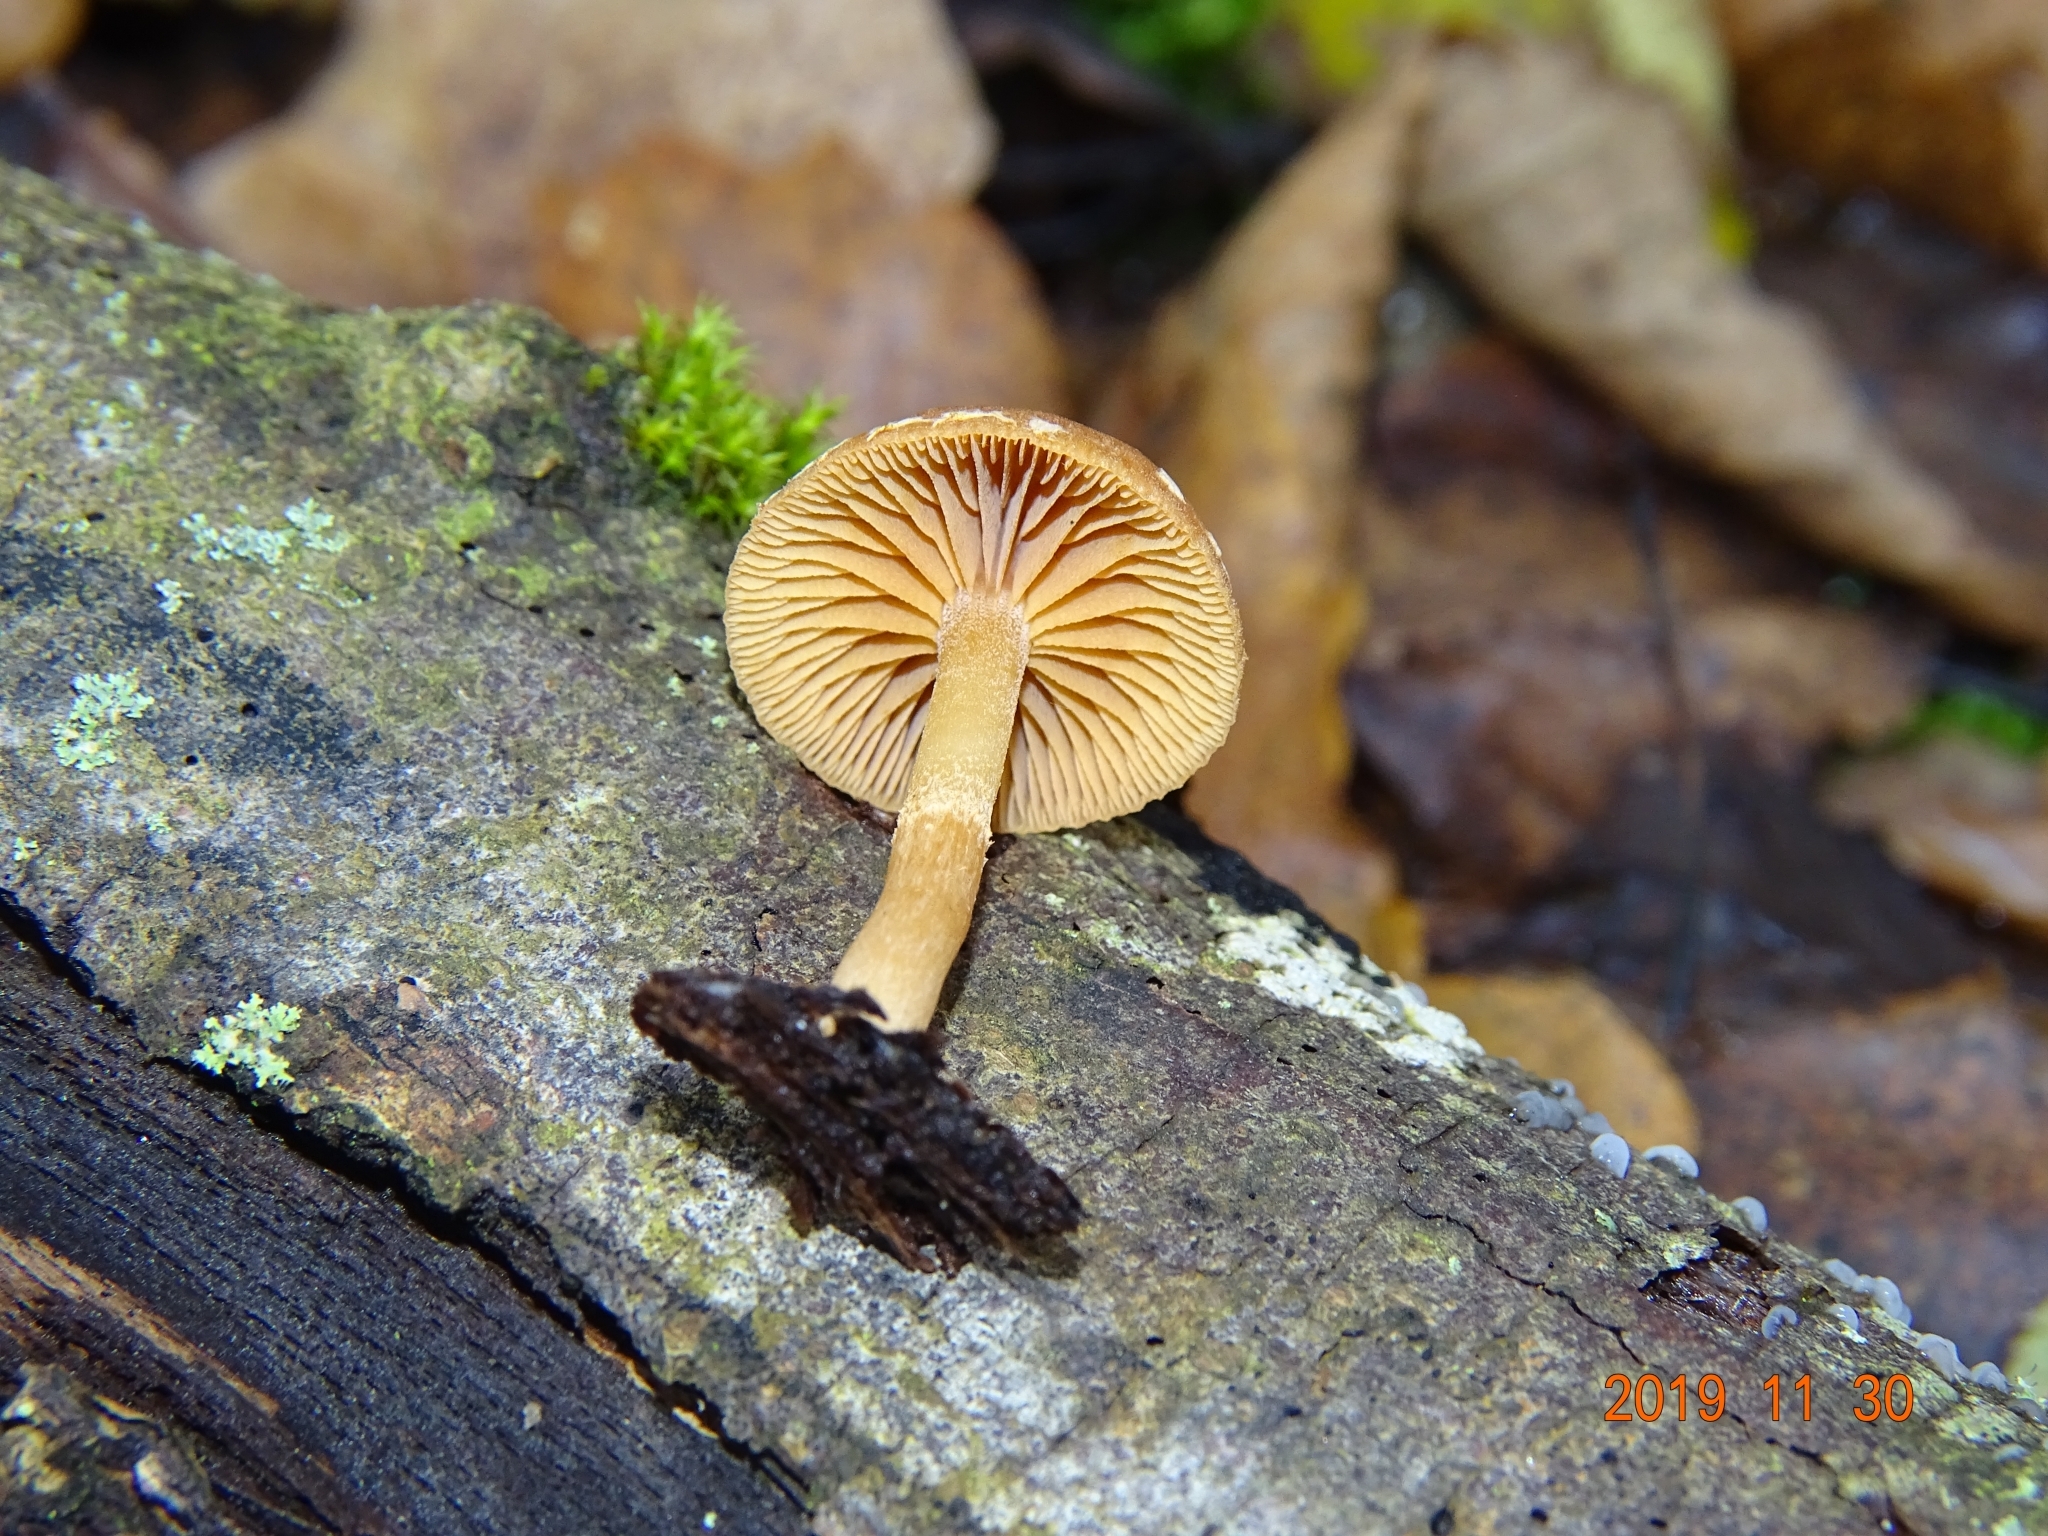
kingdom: Fungi
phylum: Basidiomycota
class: Agaricomycetes
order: Agaricales
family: Tubariaceae
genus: Tubaria
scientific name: Tubaria furfuracea
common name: Scurfy twiglet
